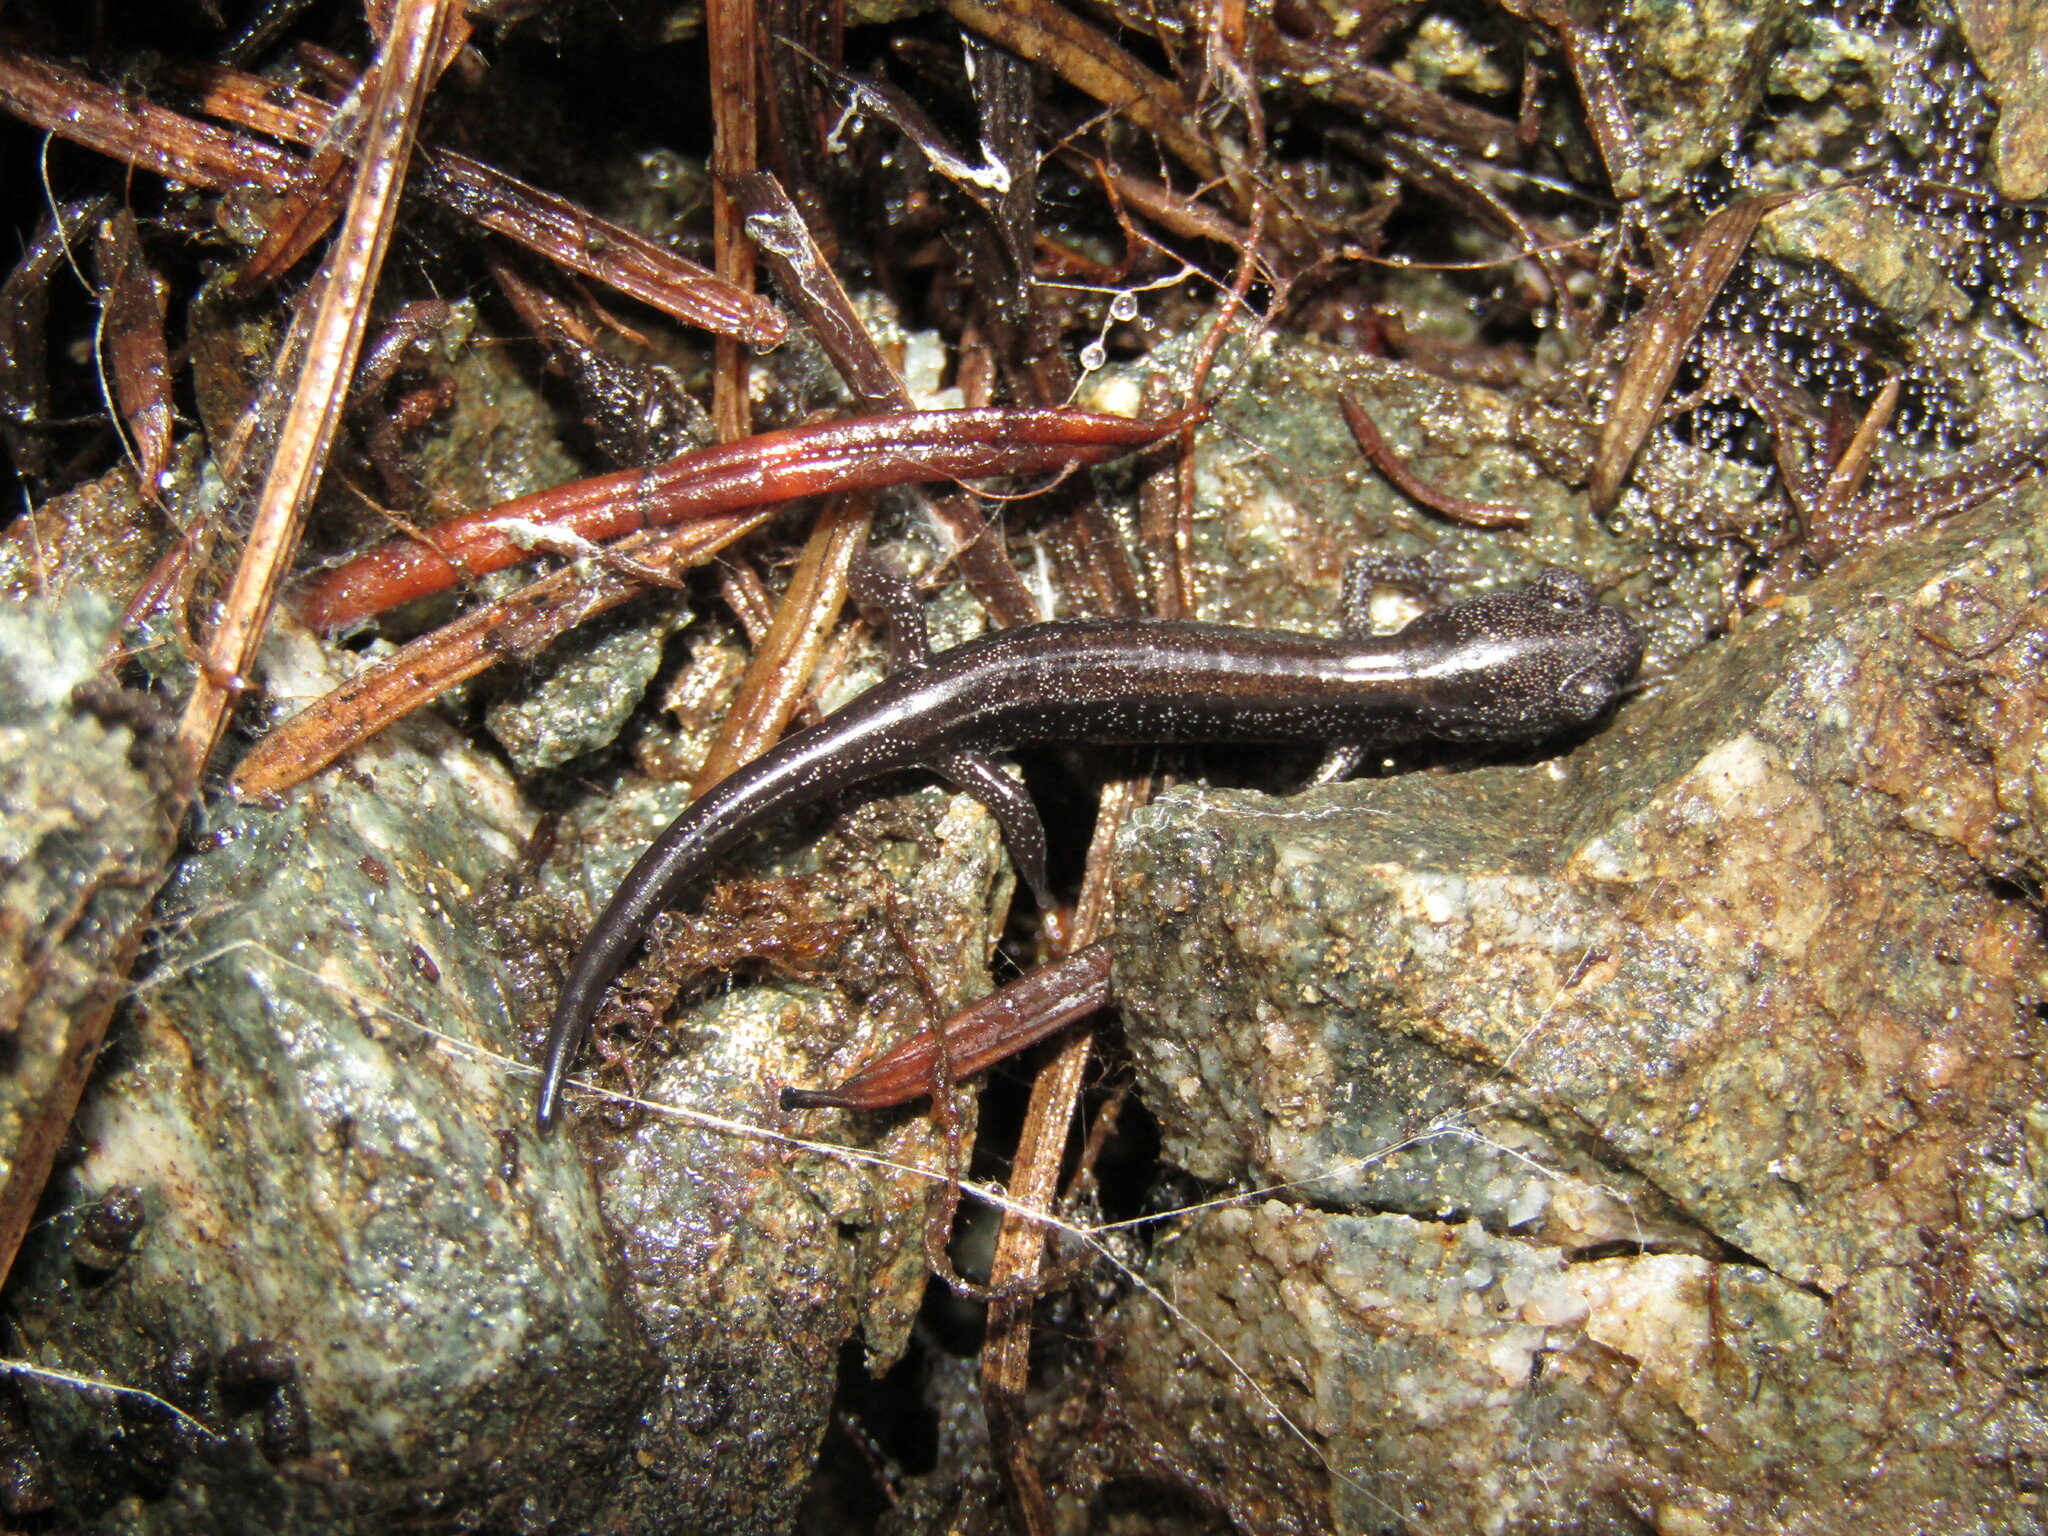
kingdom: Animalia
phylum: Chordata
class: Amphibia
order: Caudata
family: Plethodontidae
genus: Plethodon
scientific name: Plethodon stormi
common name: Siskiyou mountains salamander
